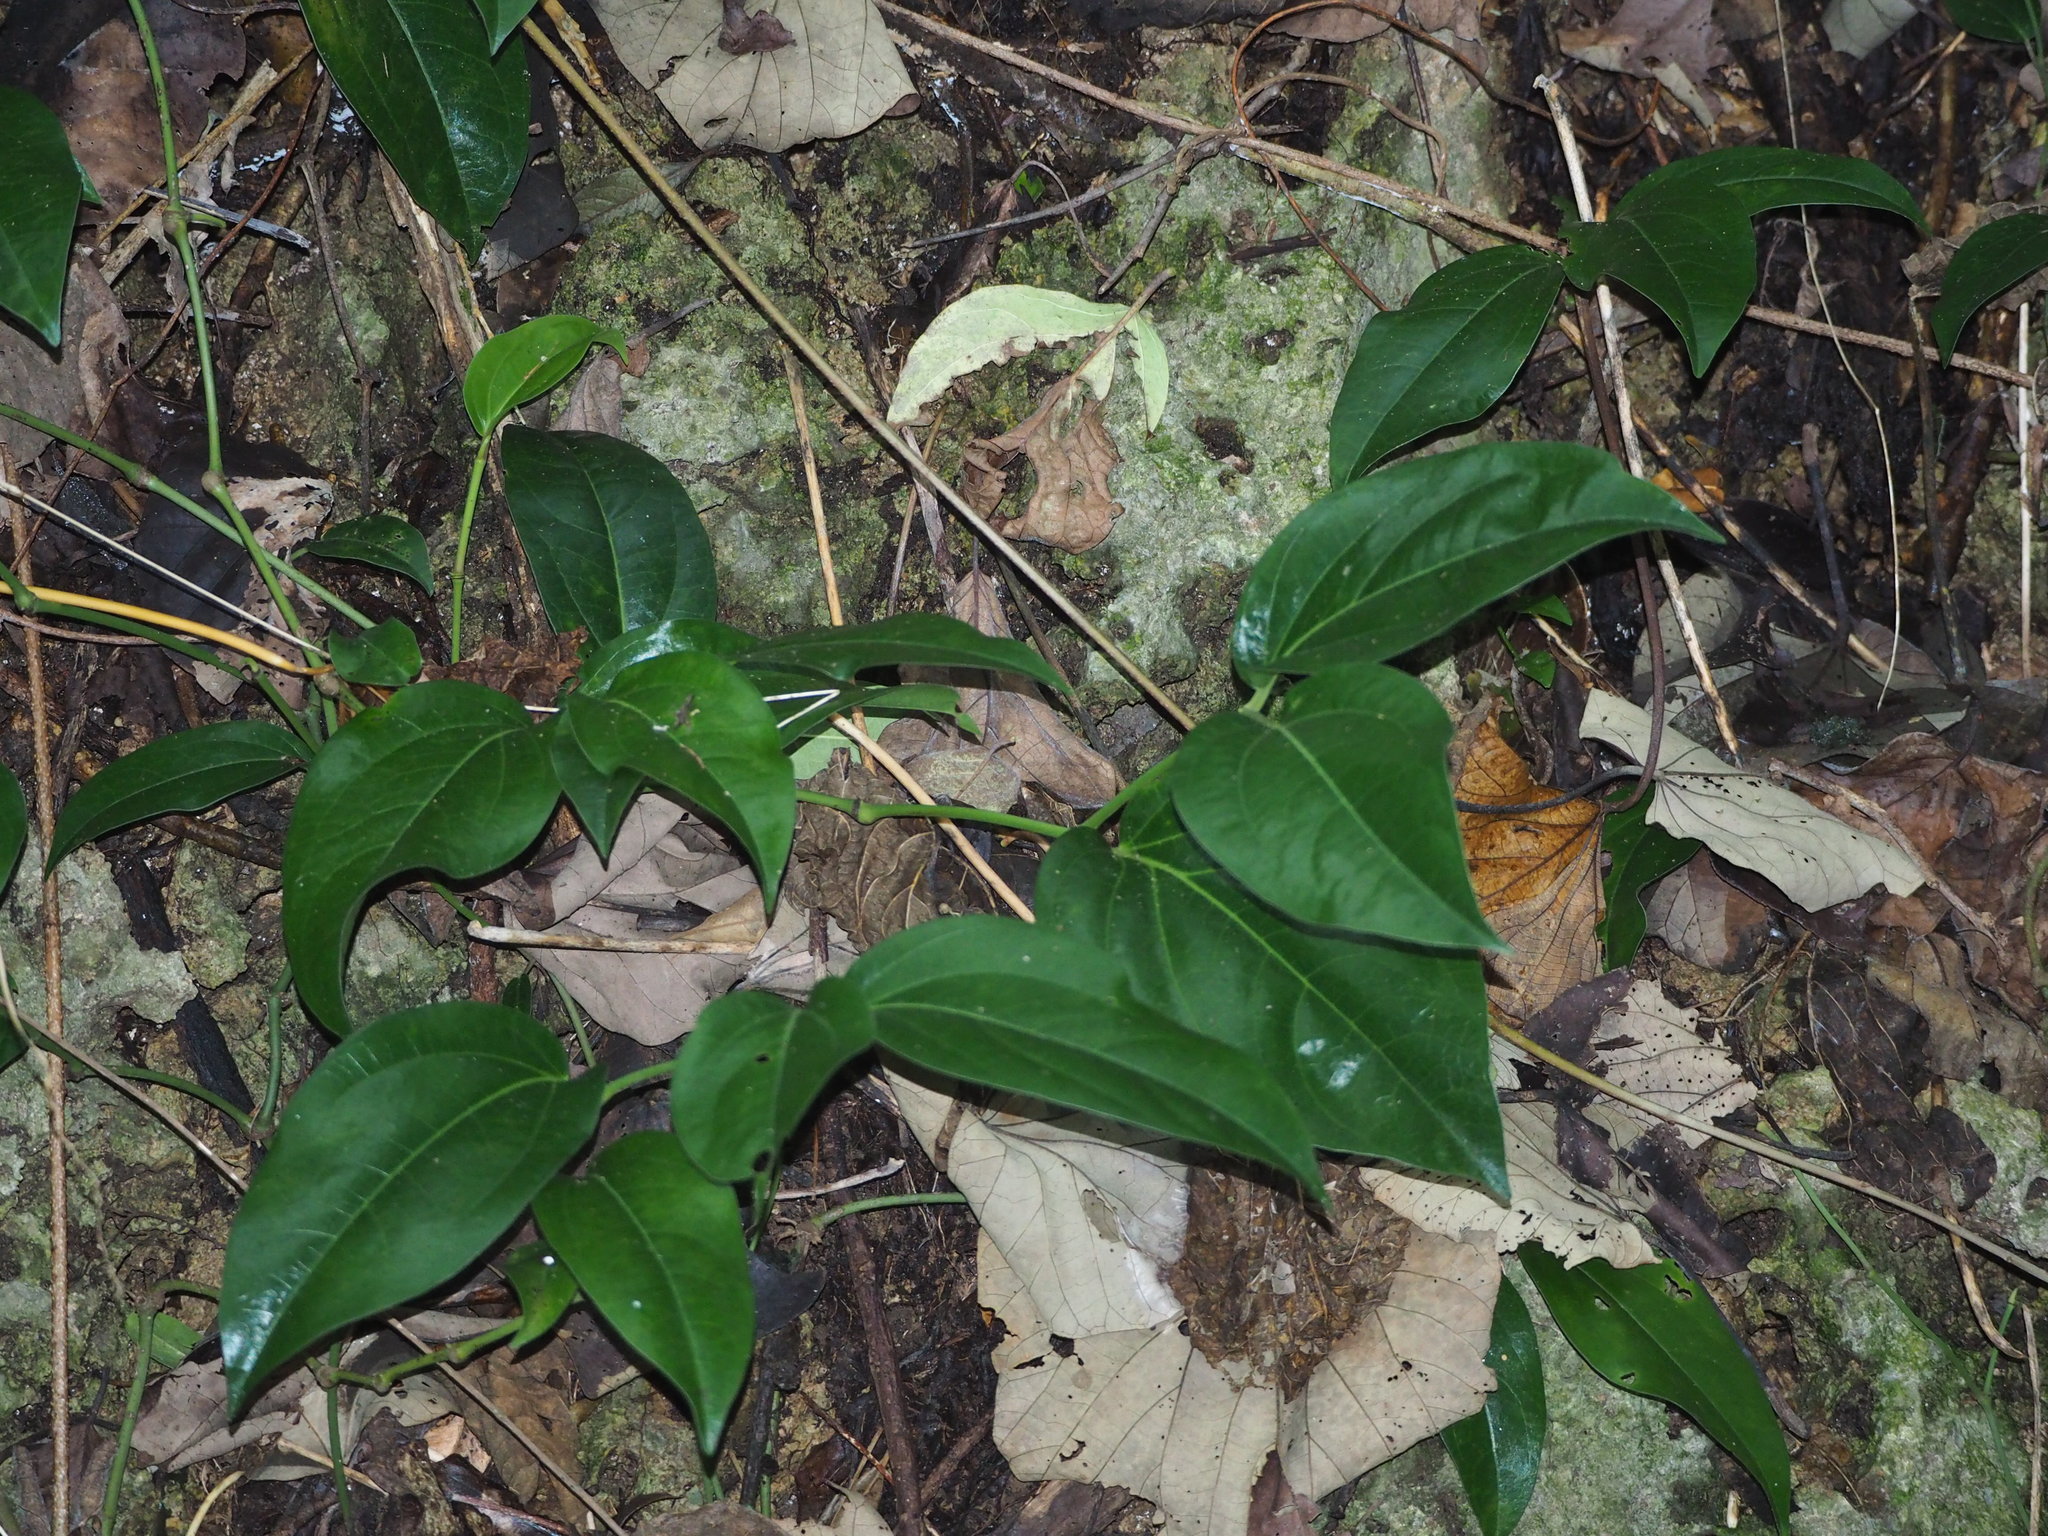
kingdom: Plantae
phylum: Tracheophyta
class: Magnoliopsida
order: Piperales
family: Piperaceae
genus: Piper
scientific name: Piper kawakamii
